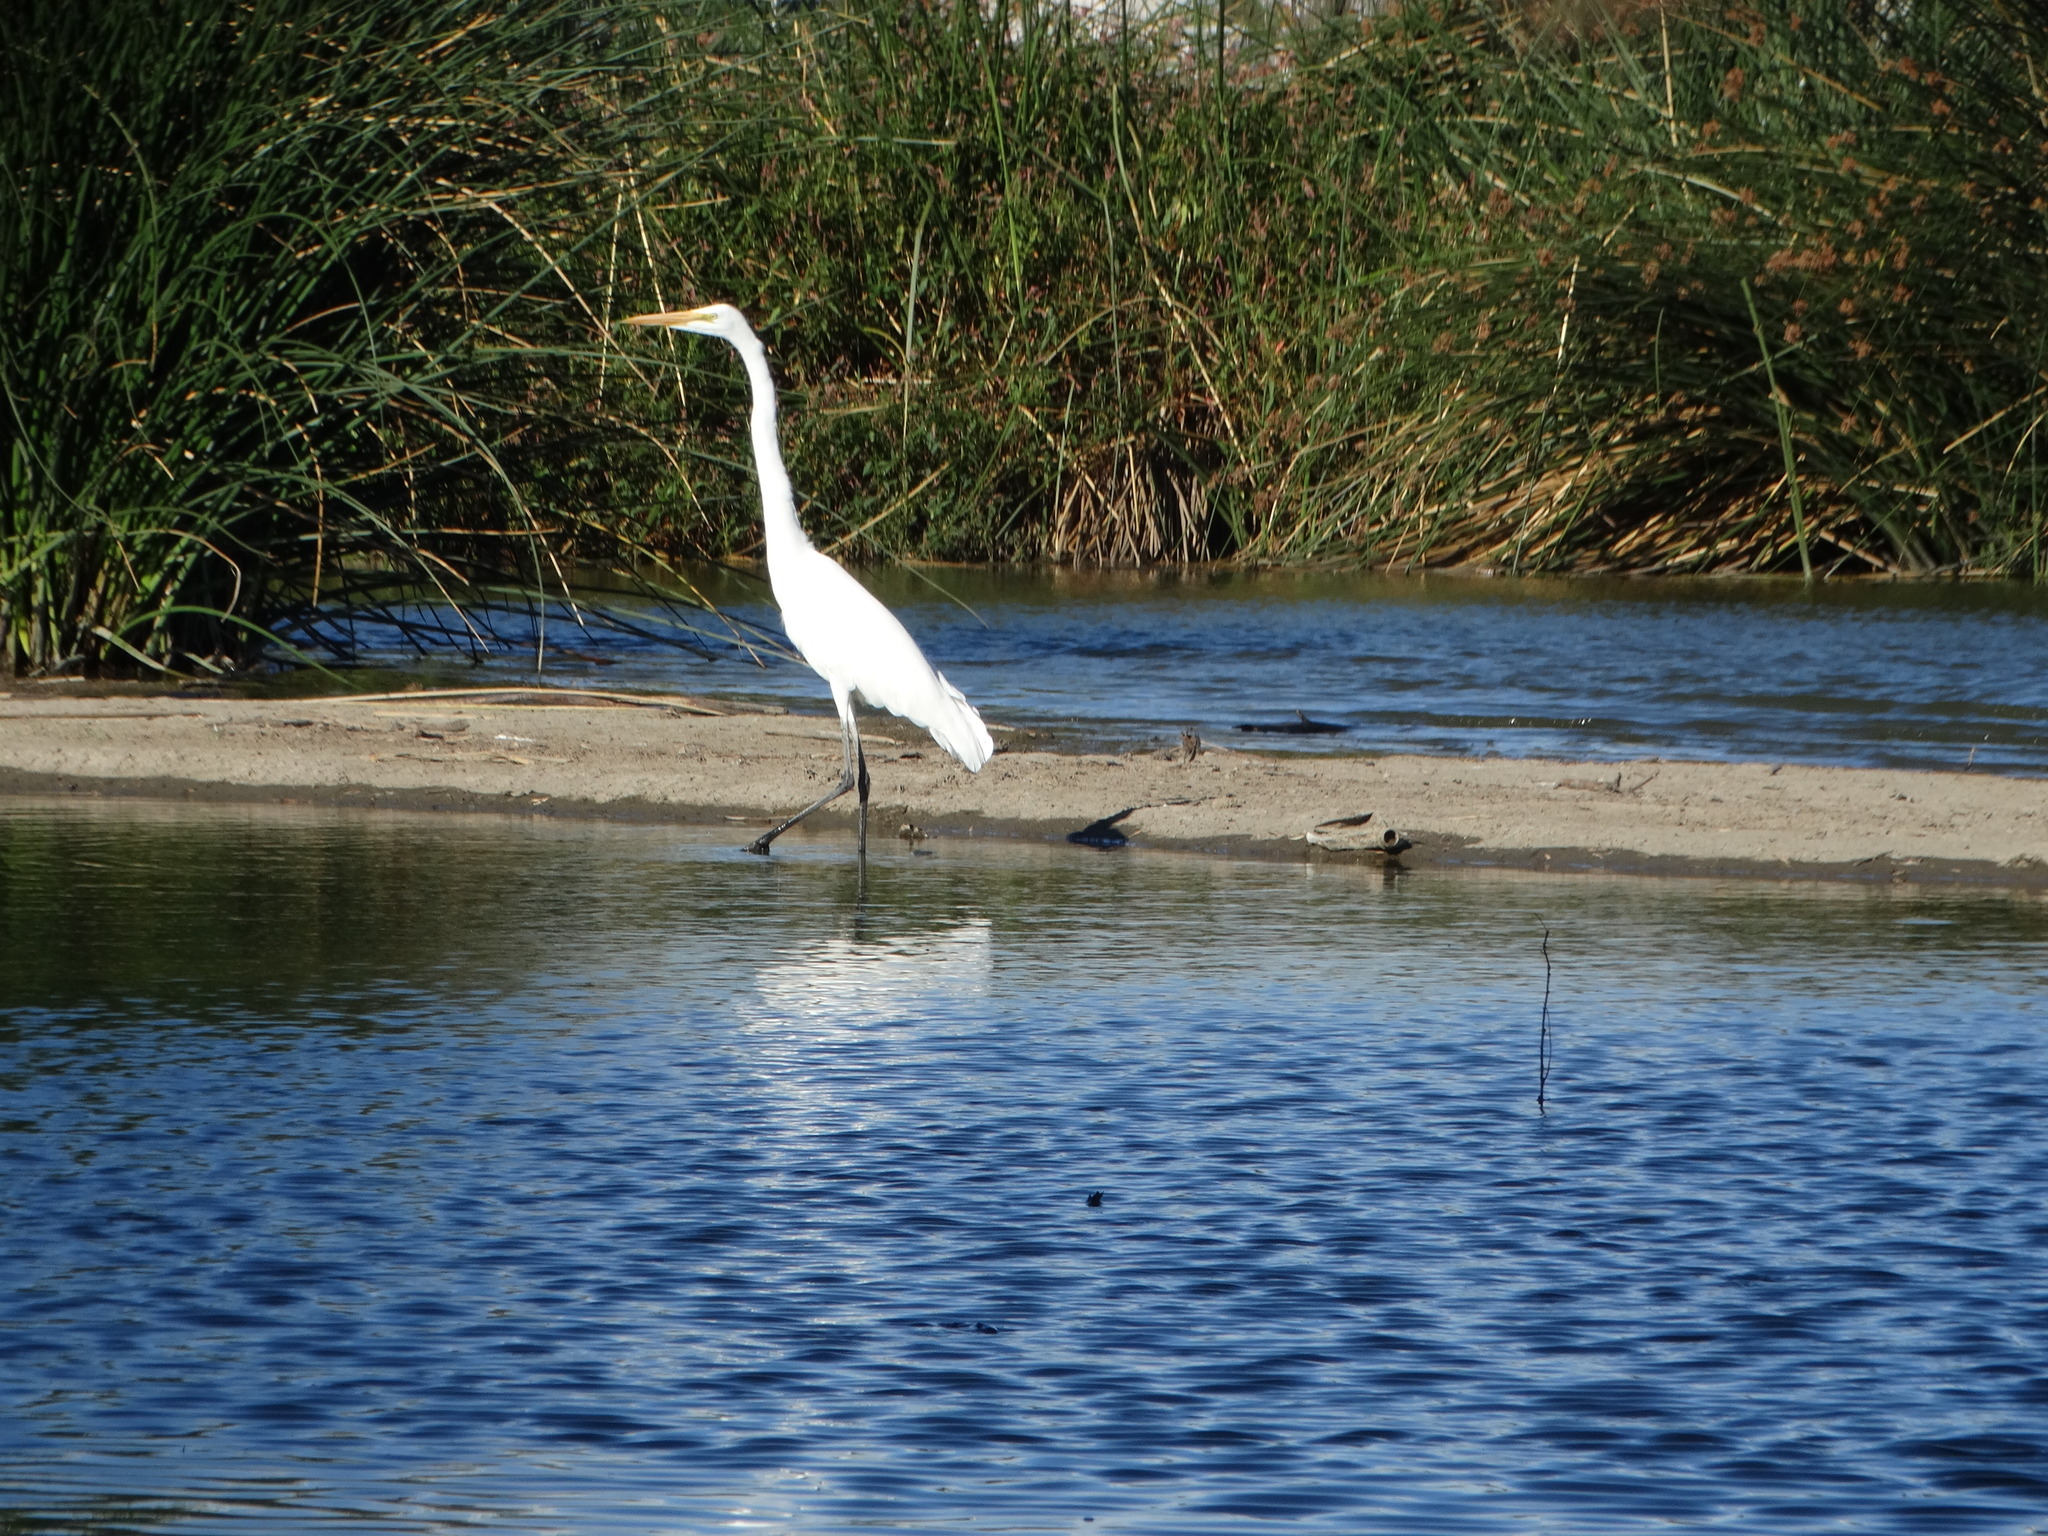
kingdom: Animalia
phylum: Chordata
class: Aves
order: Pelecaniformes
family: Ardeidae
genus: Ardea
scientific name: Ardea alba
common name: Great egret
